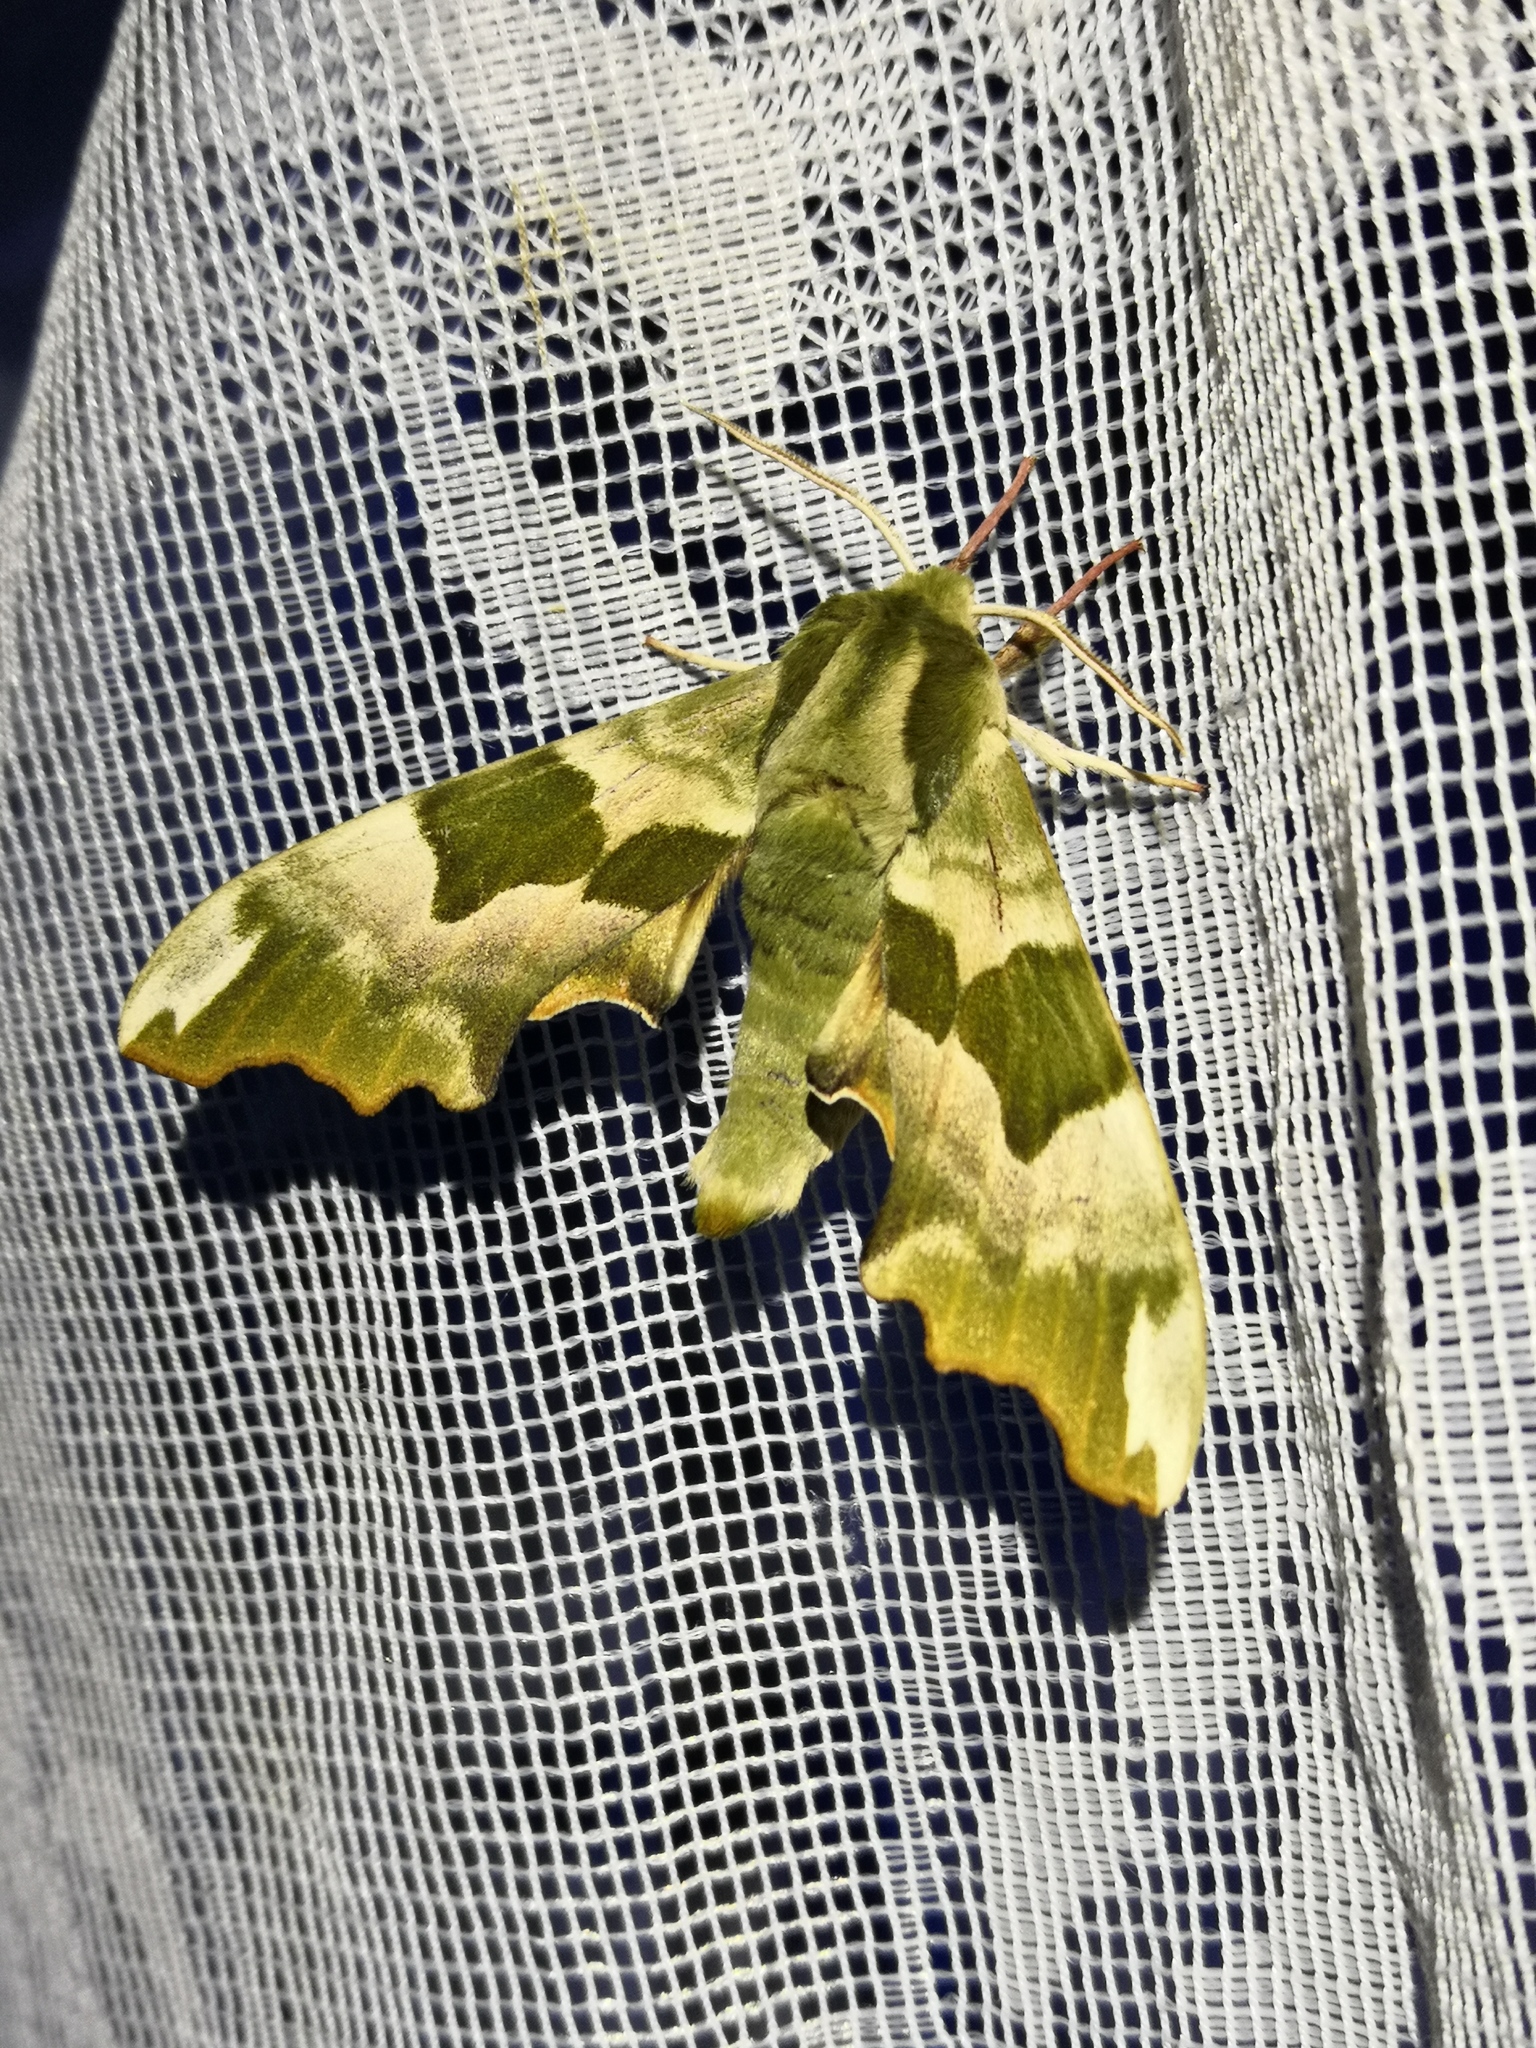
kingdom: Animalia
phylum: Arthropoda
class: Insecta
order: Lepidoptera
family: Sphingidae
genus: Mimas
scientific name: Mimas tiliae
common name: Lime hawk-moth
